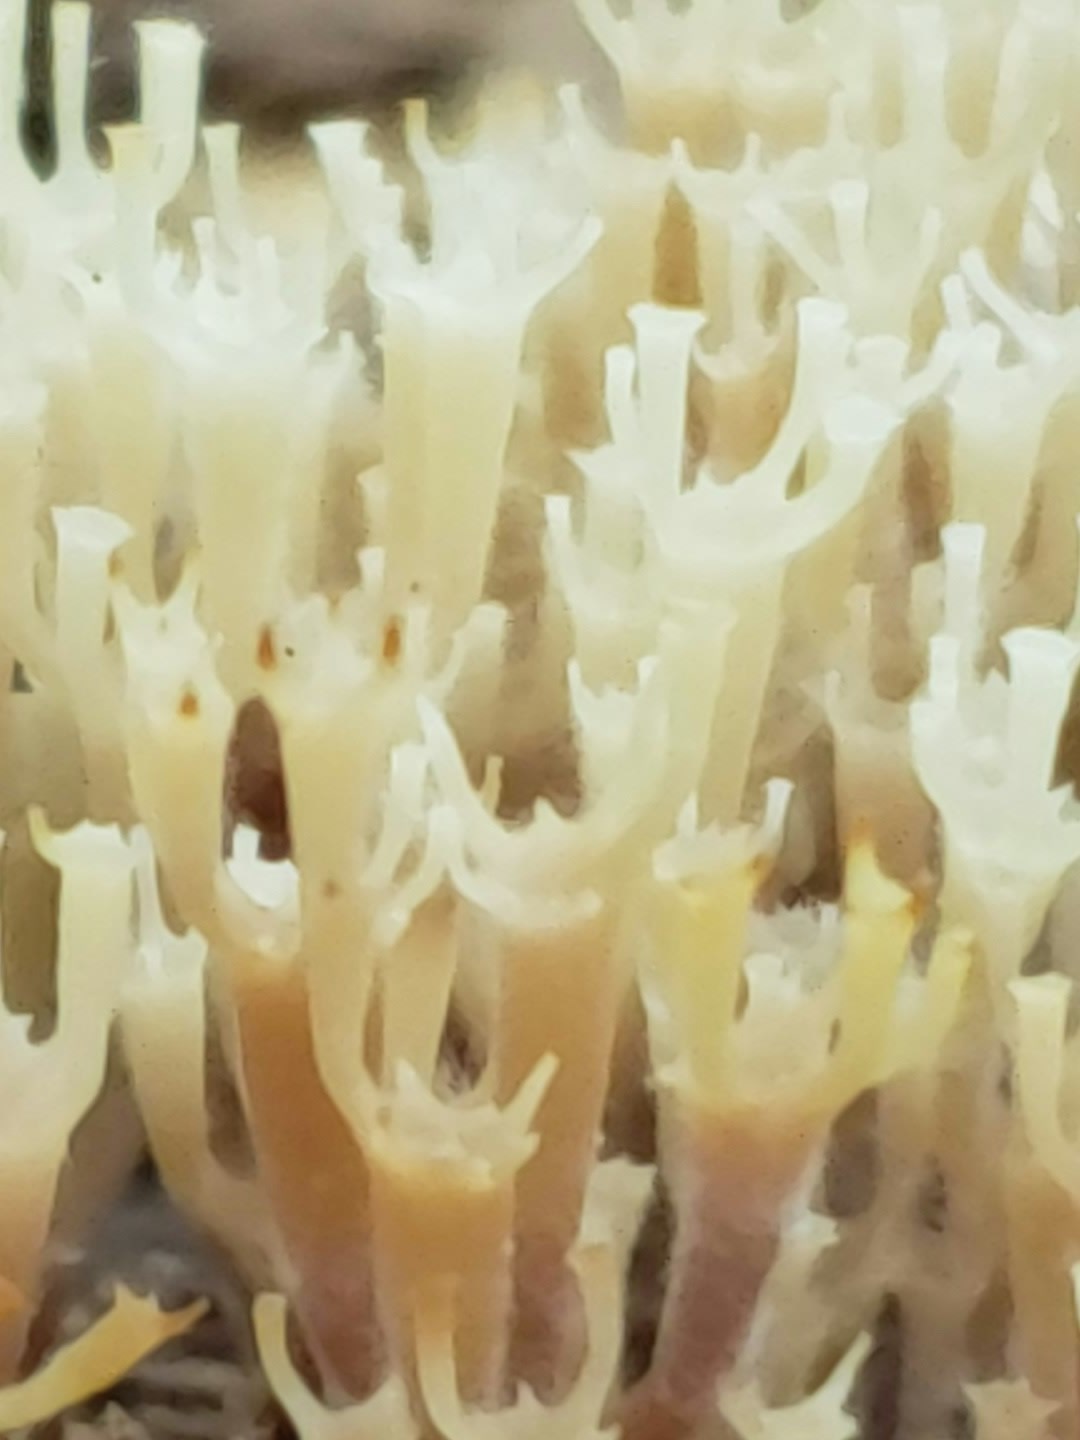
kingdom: Fungi
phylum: Basidiomycota
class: Agaricomycetes
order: Russulales
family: Auriscalpiaceae
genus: Artomyces
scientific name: Artomyces pyxidatus
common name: Crown-tipped coral fungus
